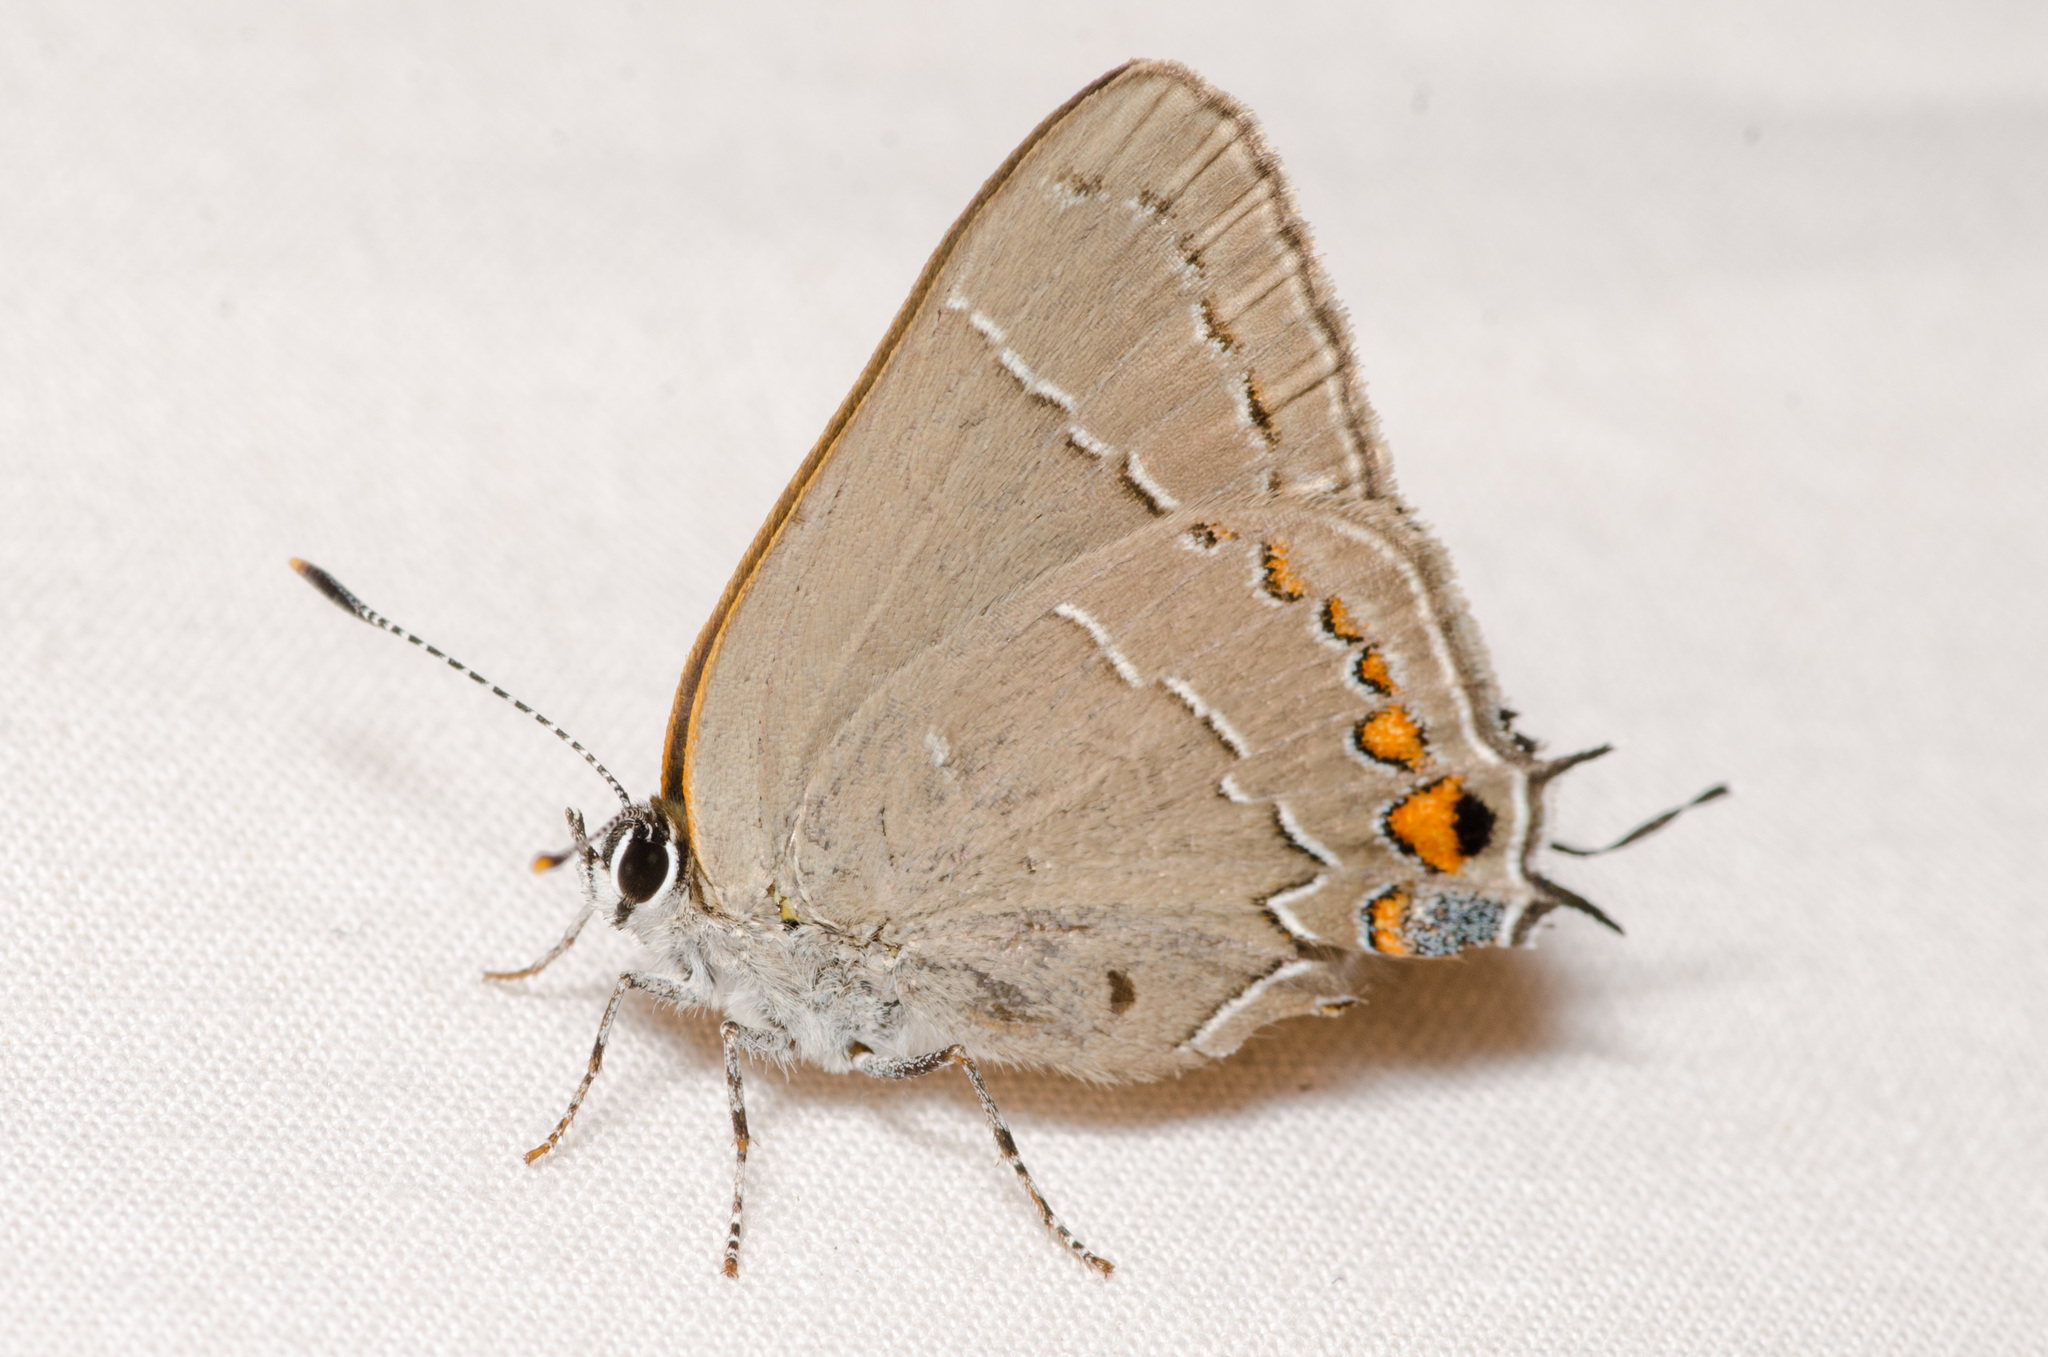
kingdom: Animalia
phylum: Arthropoda
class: Insecta
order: Lepidoptera
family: Lycaenidae
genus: Thecla
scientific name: Thecla autolycus
